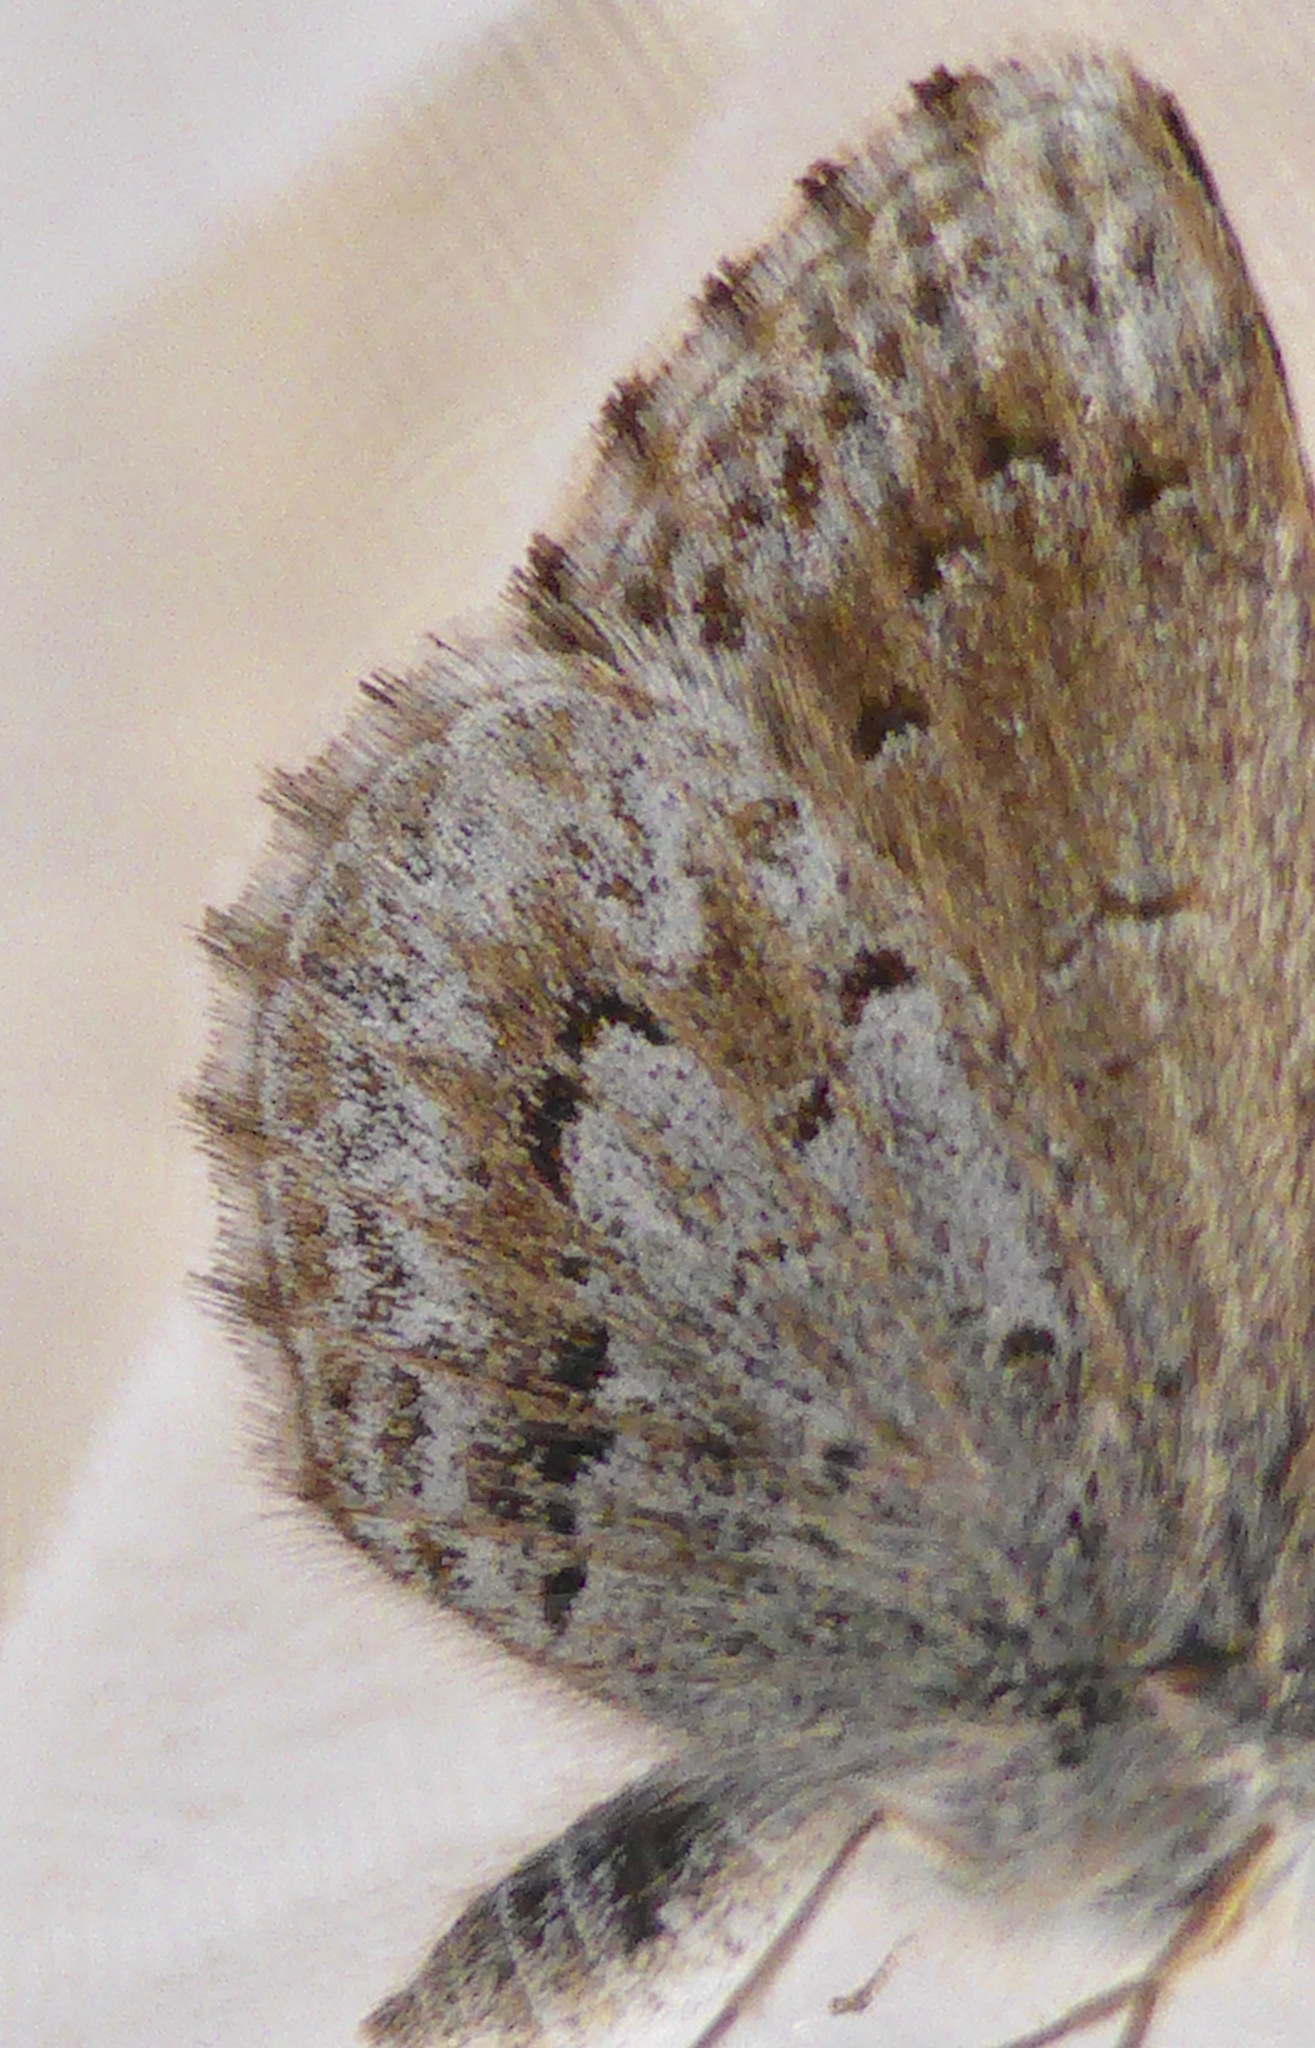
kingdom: Animalia
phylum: Arthropoda
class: Insecta
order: Lepidoptera
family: Lycaenidae
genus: Zizina
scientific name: Zizina oxleyi
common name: Southern blue
